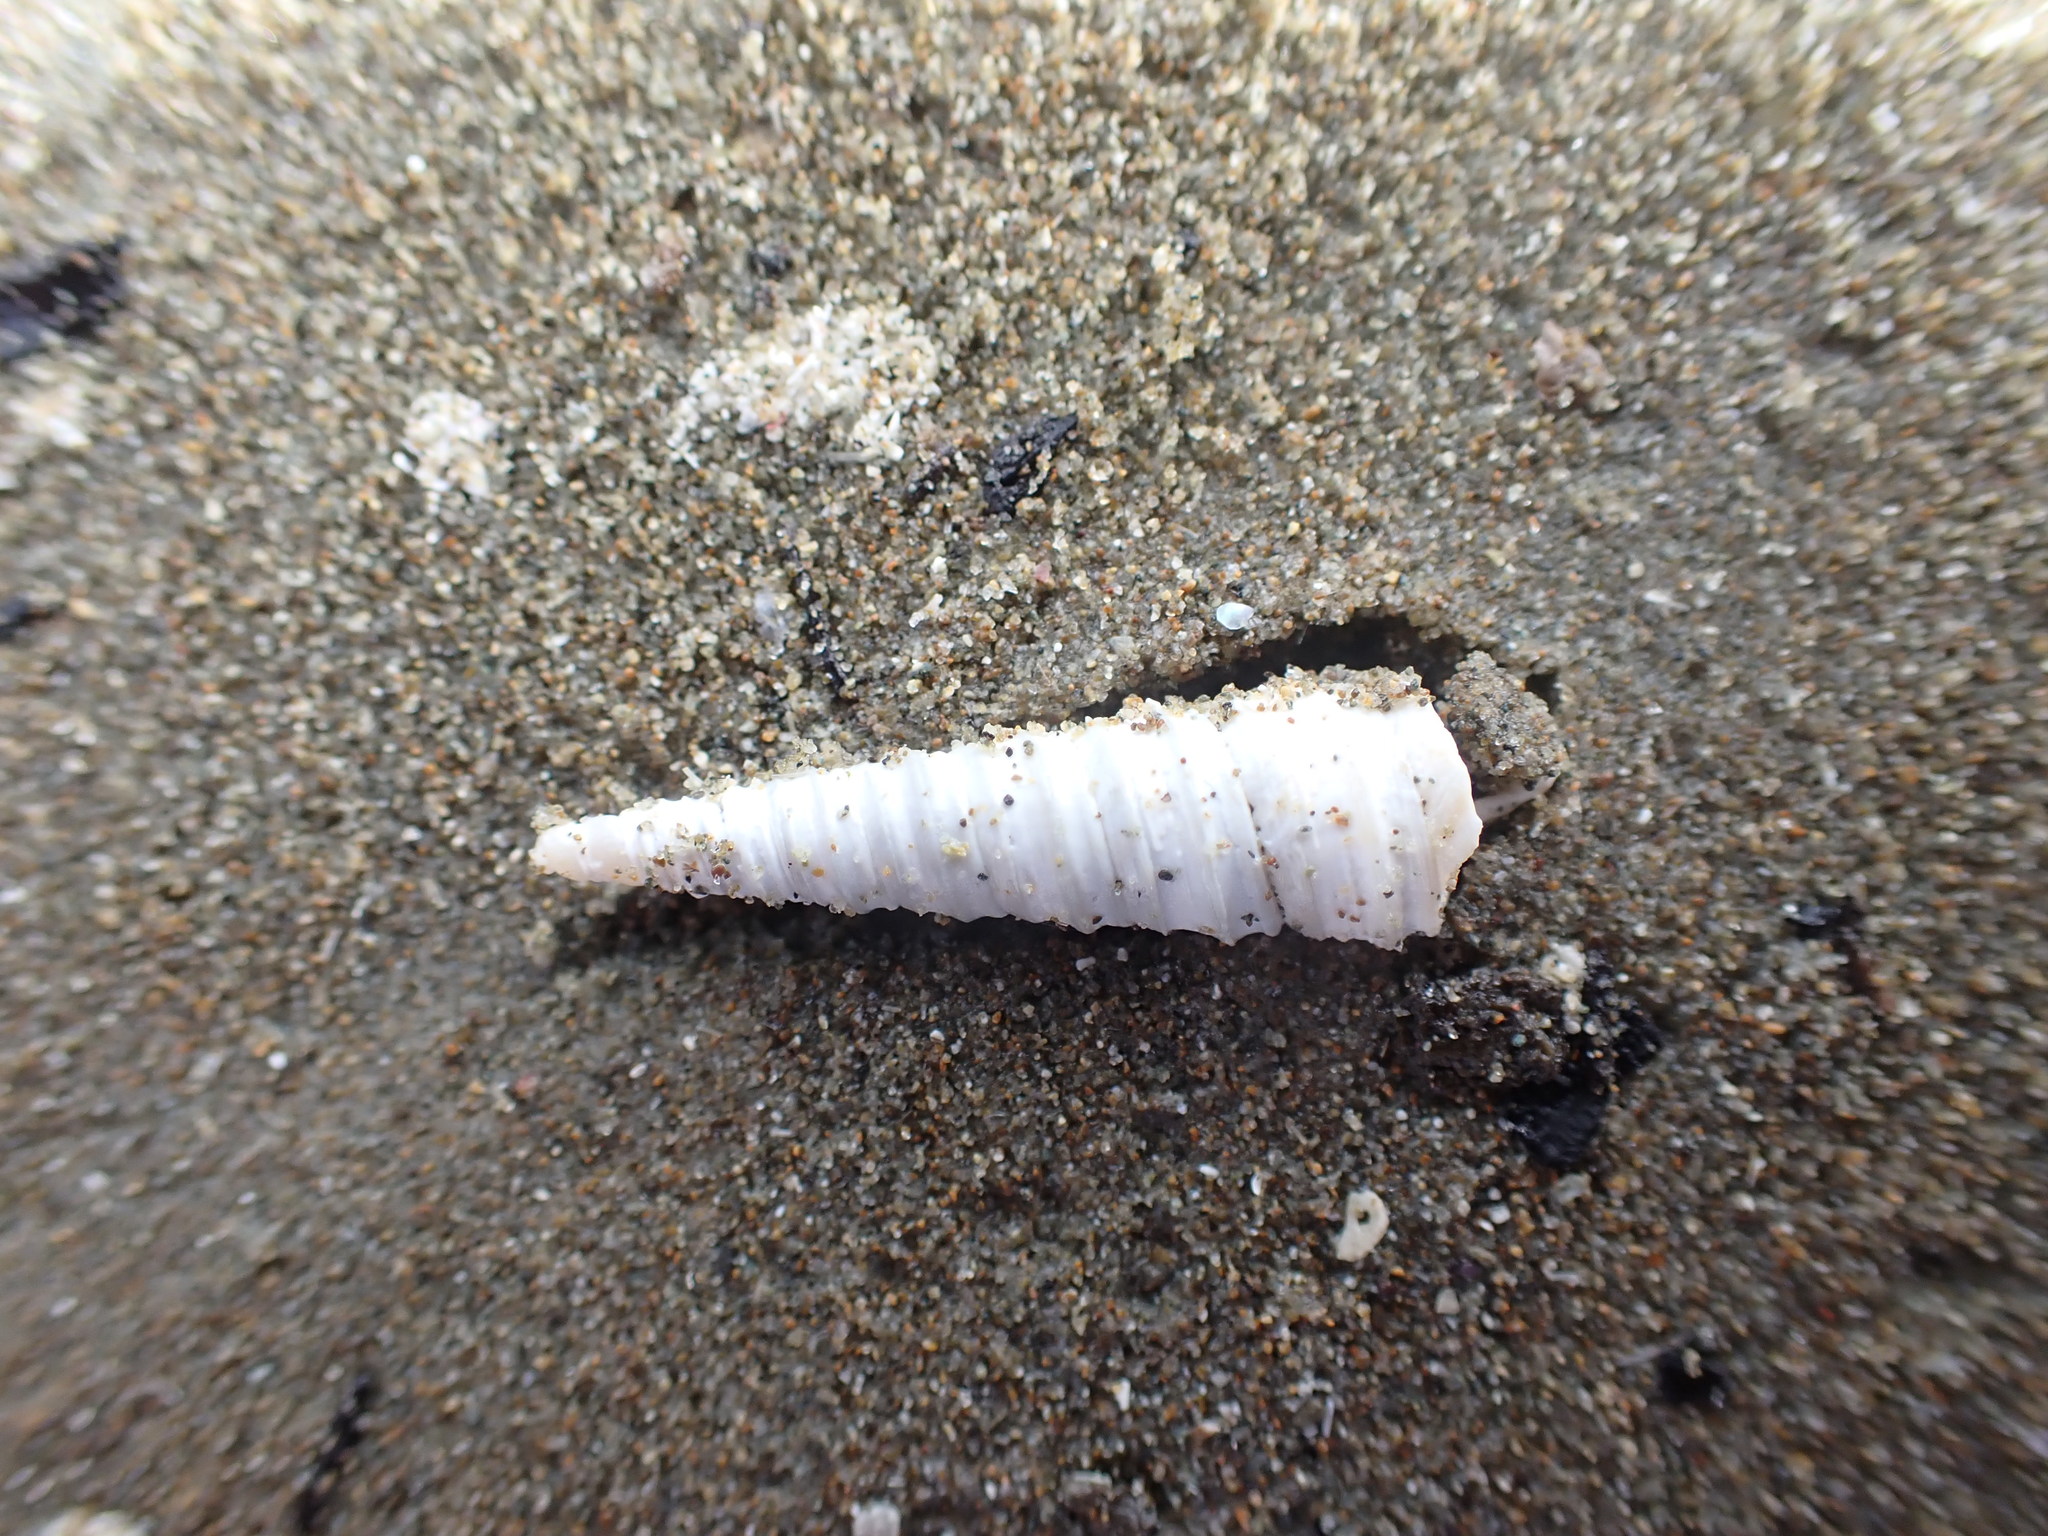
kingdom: Animalia
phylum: Mollusca
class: Gastropoda
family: Turritellidae
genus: Stiracolpus
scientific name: Stiracolpus pagoda
